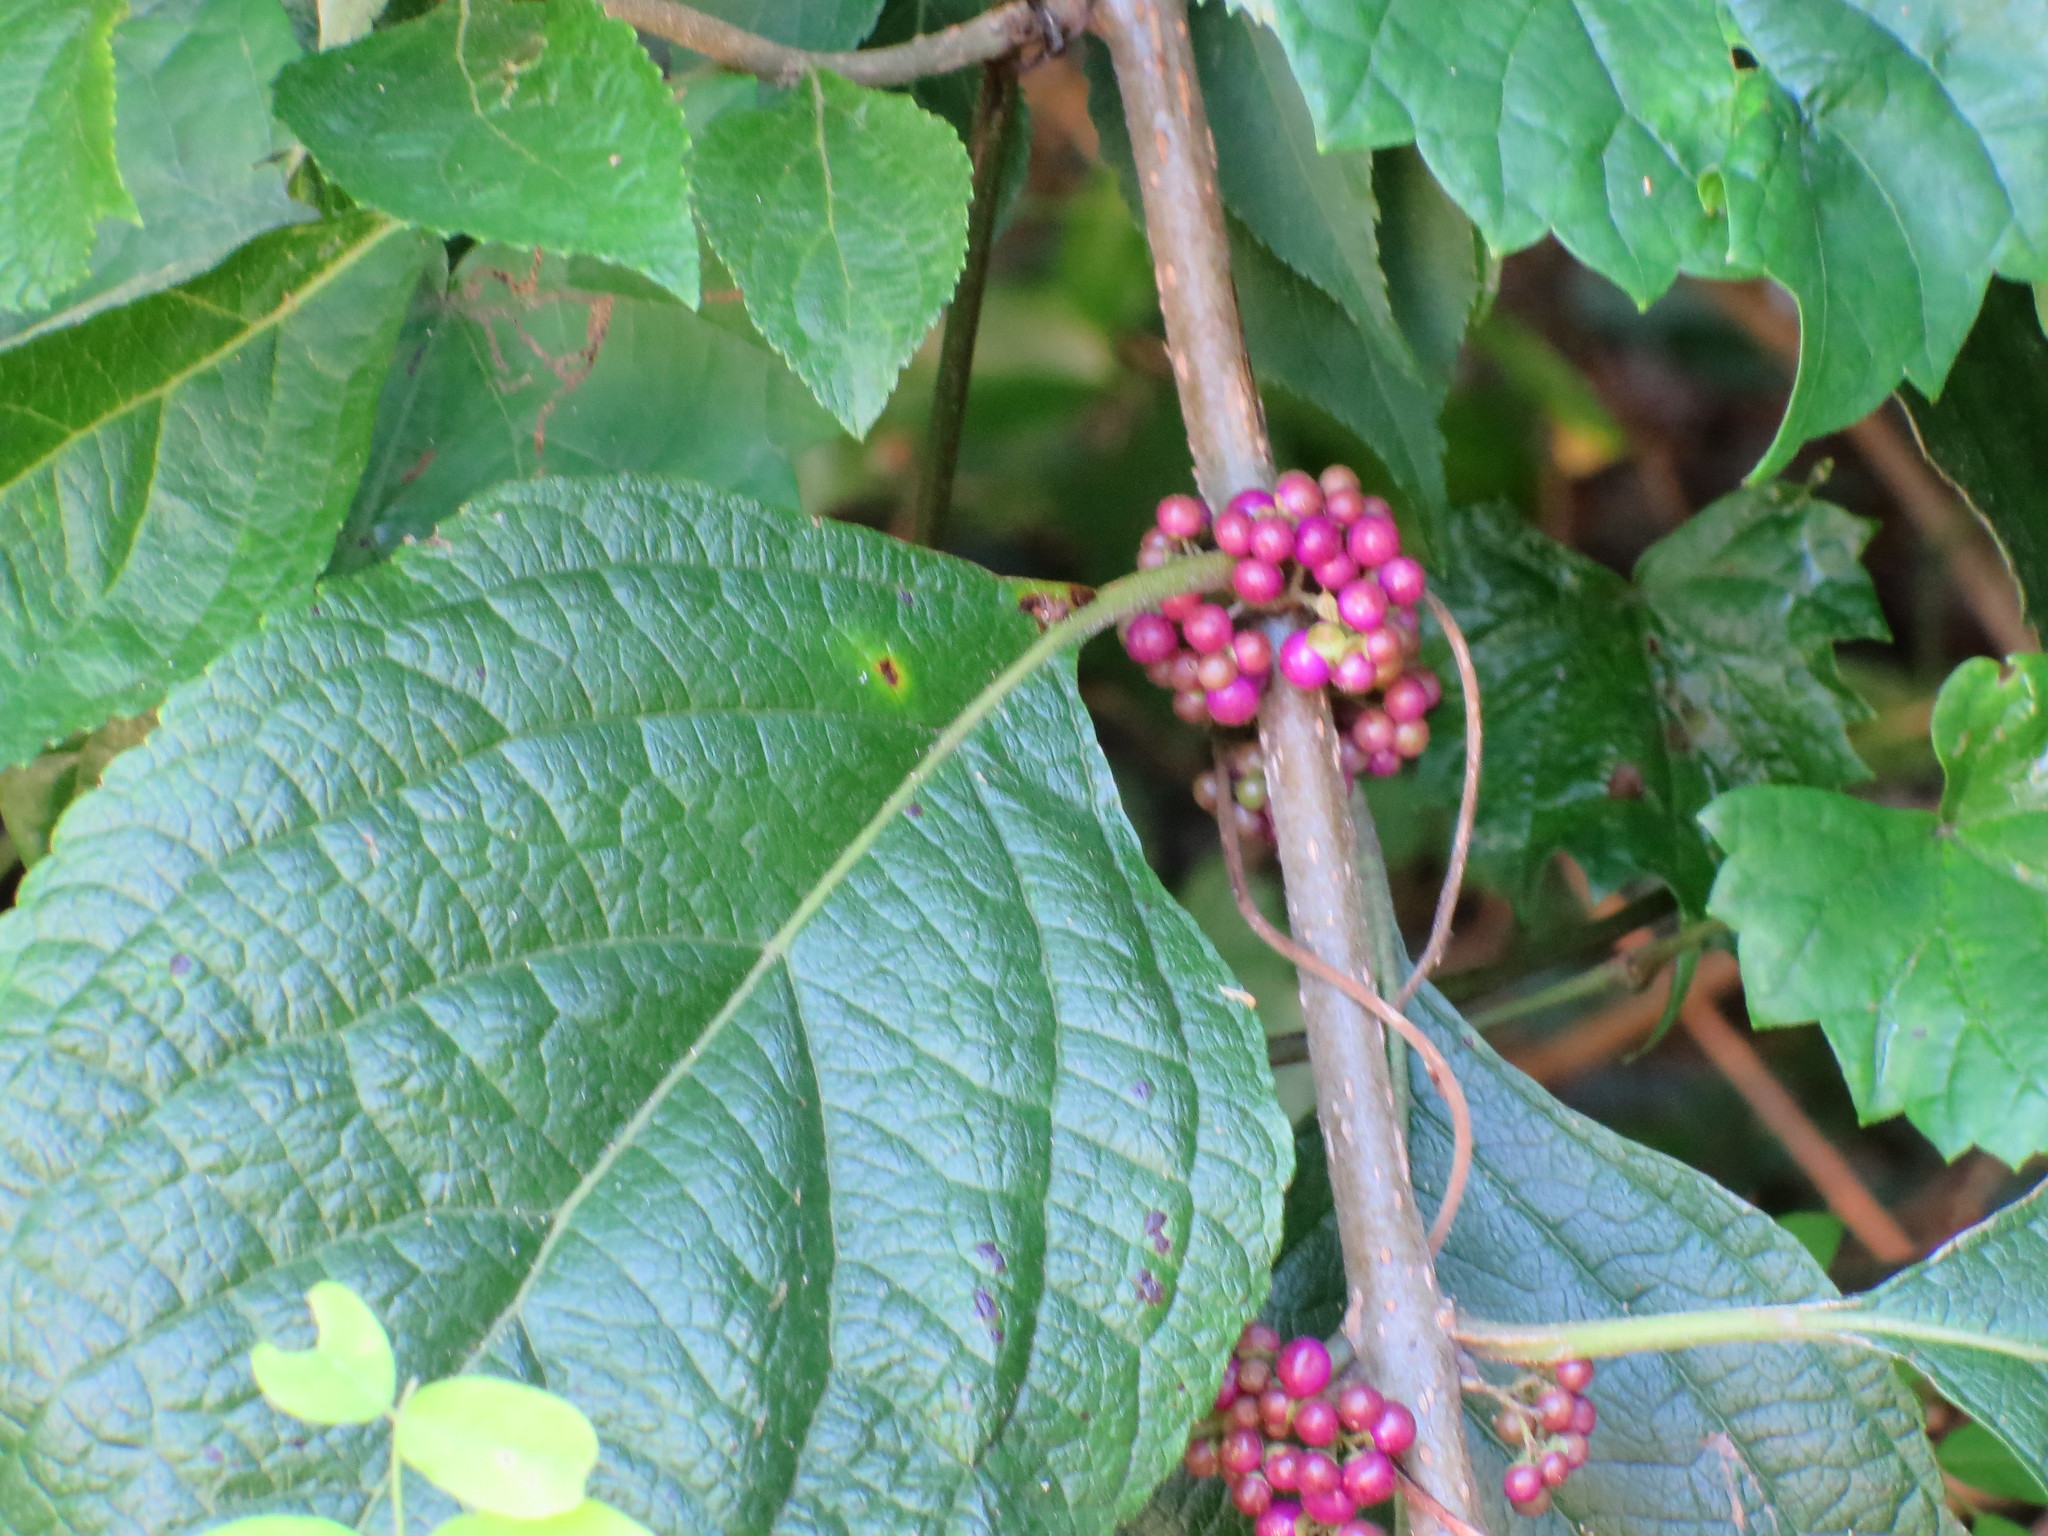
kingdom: Plantae
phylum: Tracheophyta
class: Magnoliopsida
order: Lamiales
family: Lamiaceae
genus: Callicarpa
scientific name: Callicarpa americana
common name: American beautyberry
